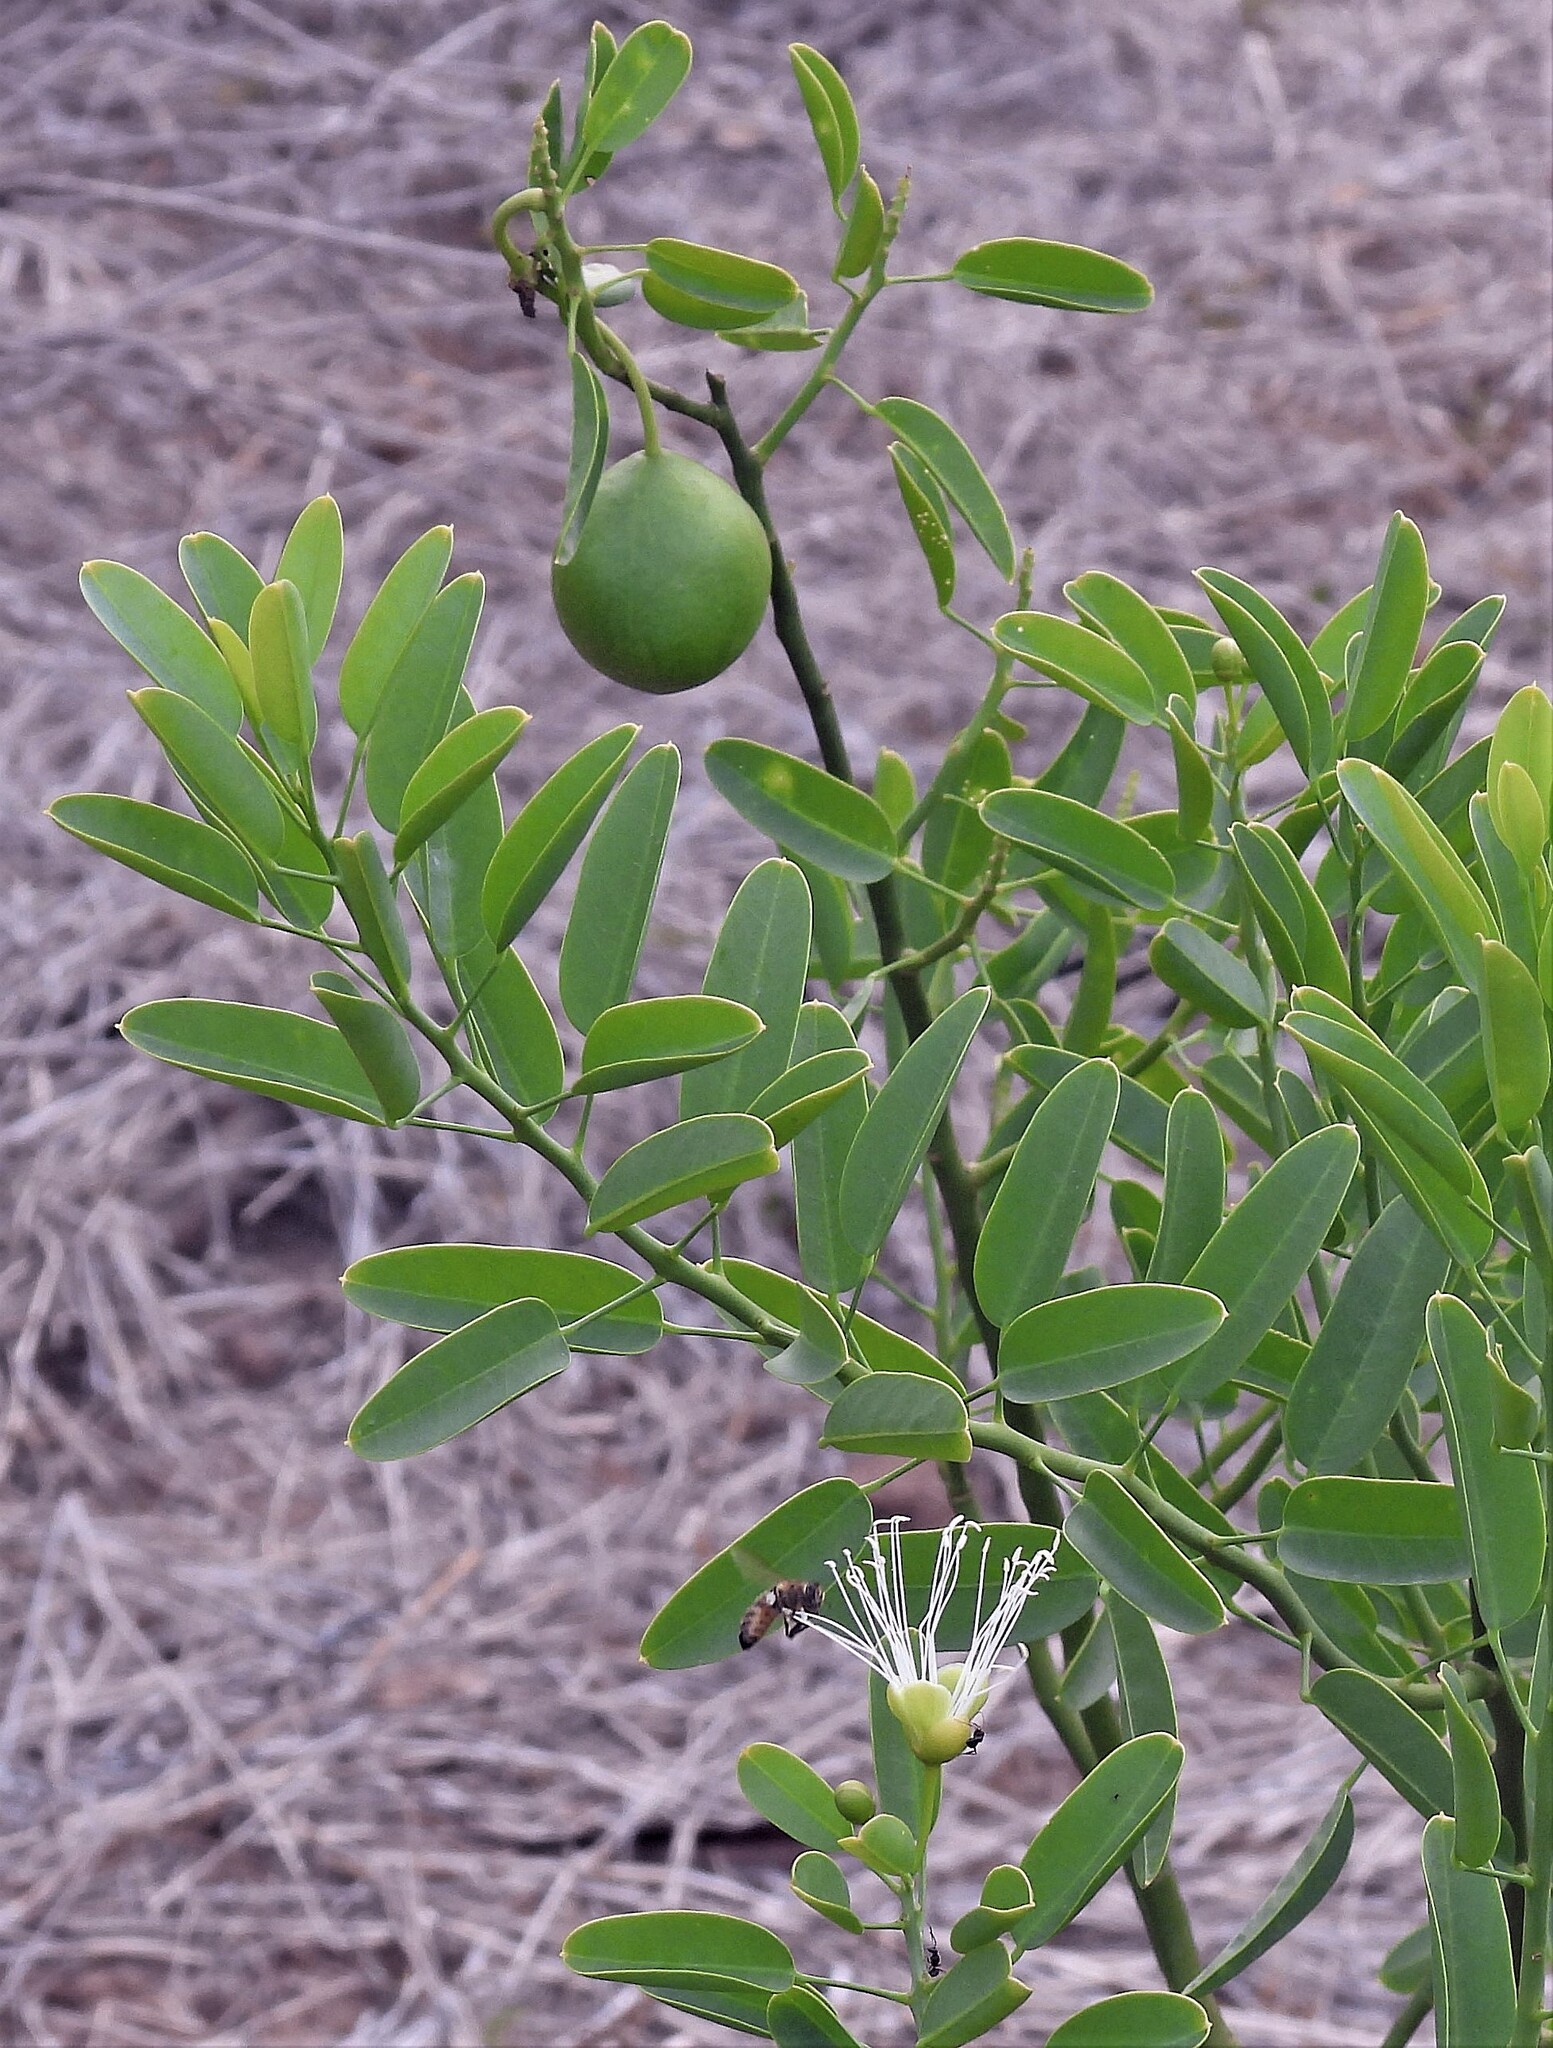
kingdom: Plantae
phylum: Tracheophyta
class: Magnoliopsida
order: Brassicales
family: Capparaceae
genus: Anisocapparis
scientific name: Anisocapparis speciosa
